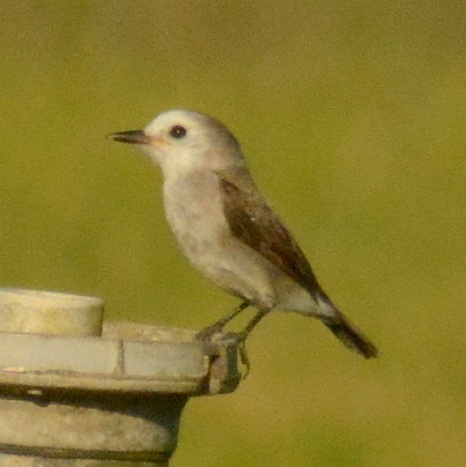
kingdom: Animalia
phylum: Chordata
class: Aves
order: Passeriformes
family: Tyrannidae
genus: Arundinicola
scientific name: Arundinicola leucocephala
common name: White-headed marsh tyrant
